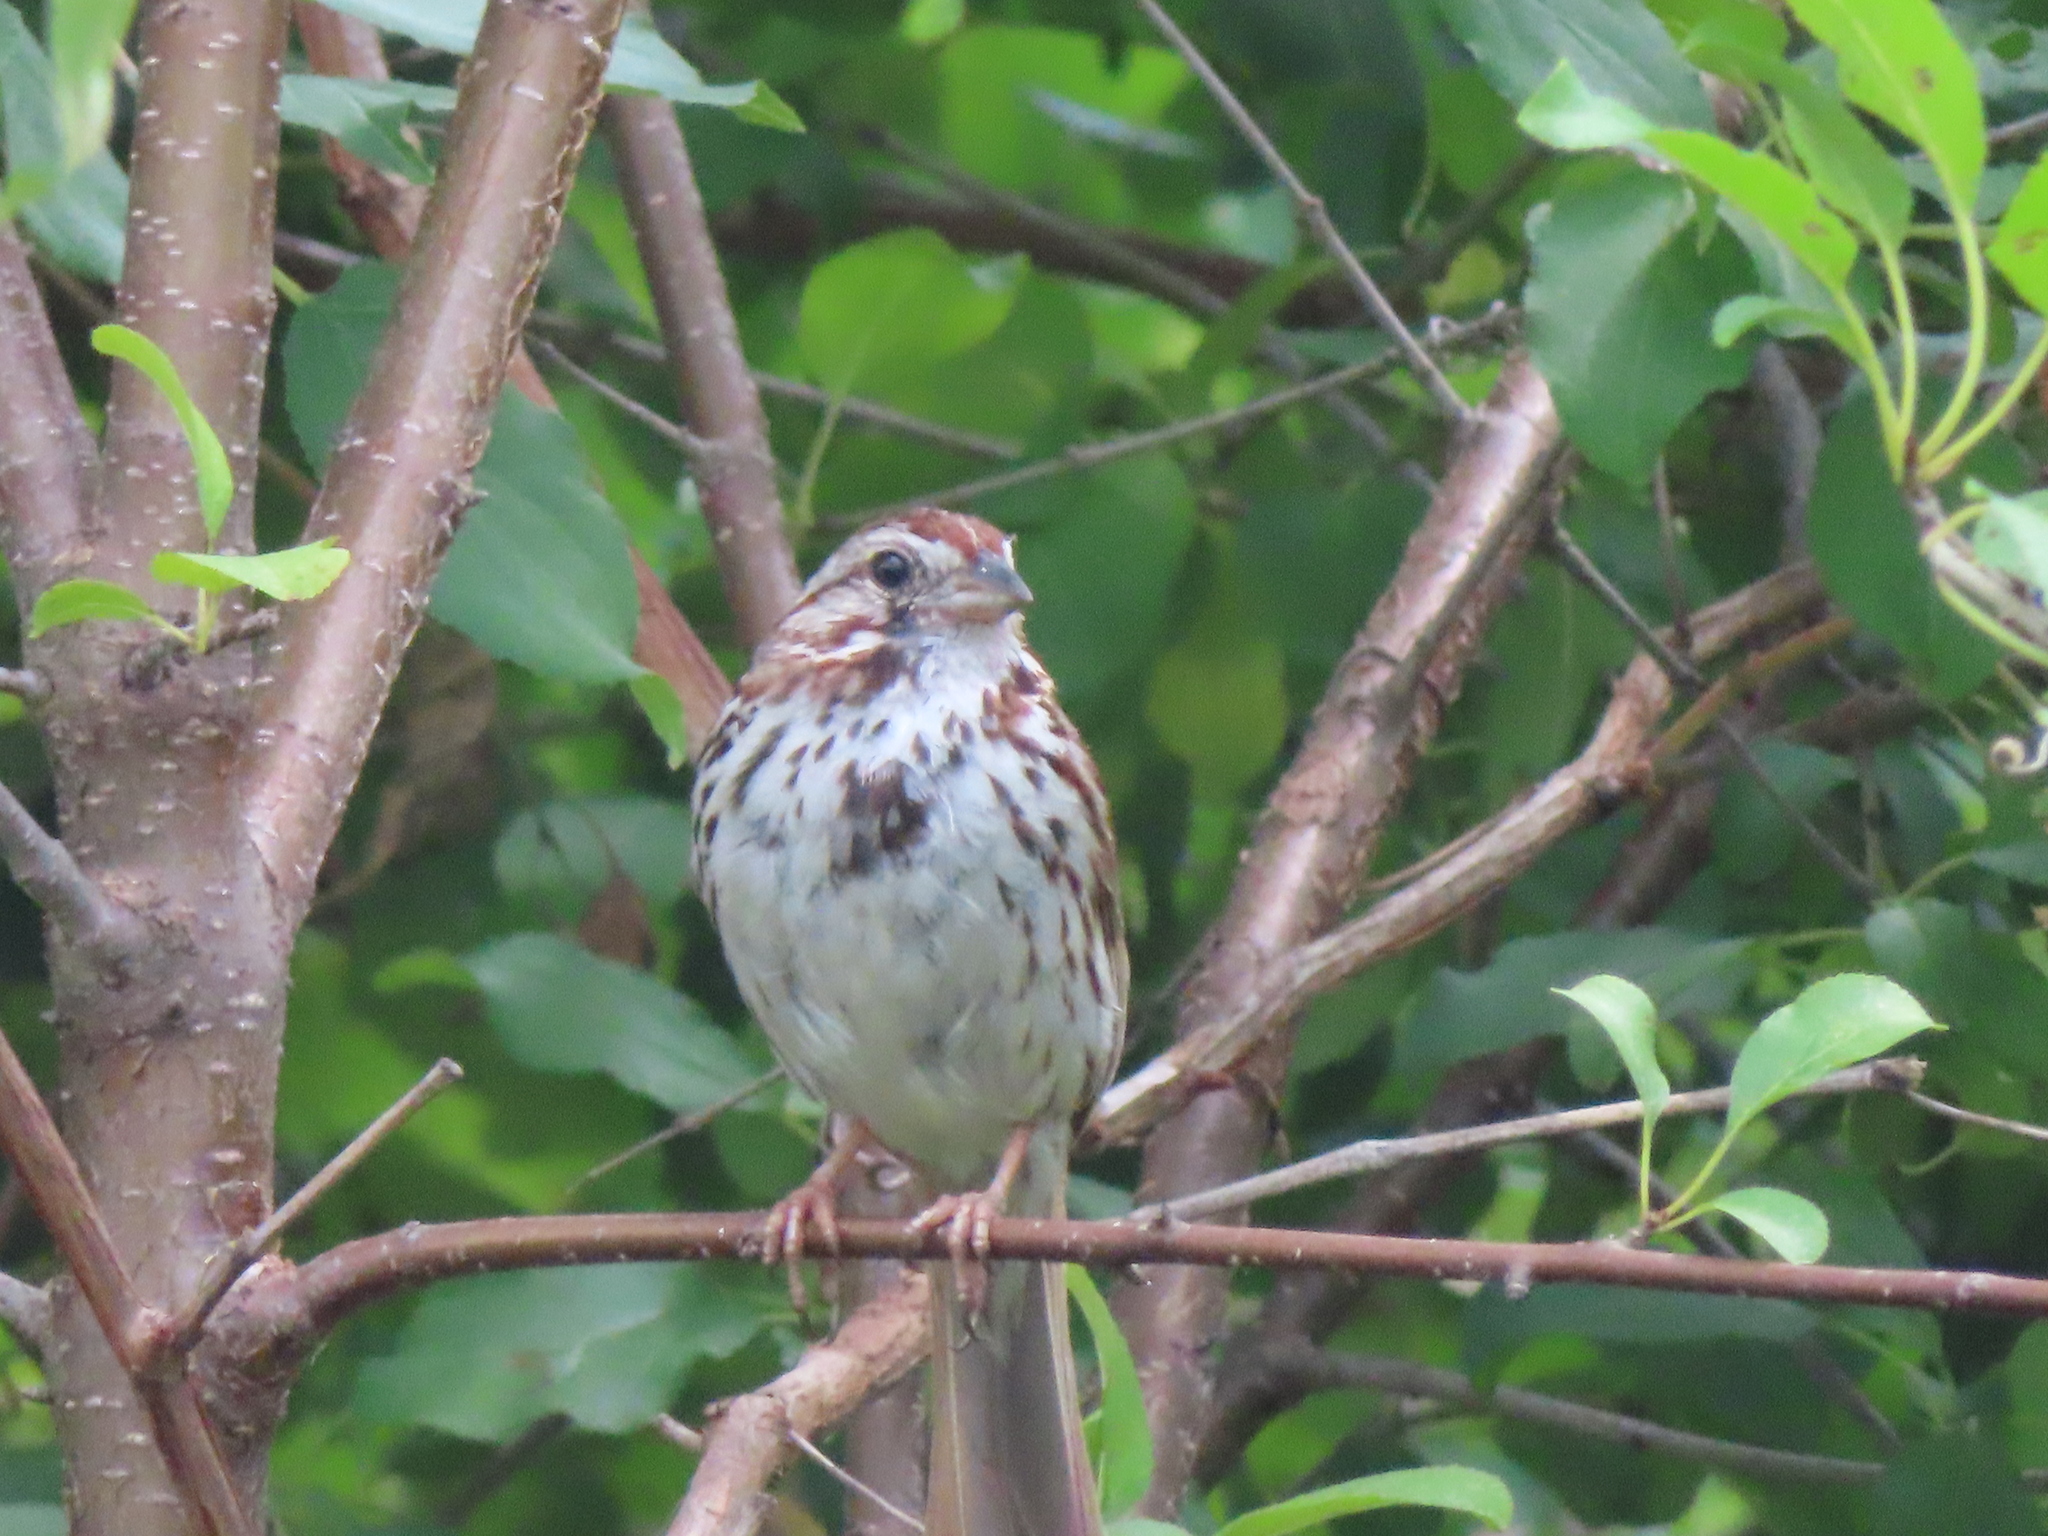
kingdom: Animalia
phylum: Chordata
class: Aves
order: Passeriformes
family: Passerellidae
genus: Melospiza
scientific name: Melospiza melodia
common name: Song sparrow
